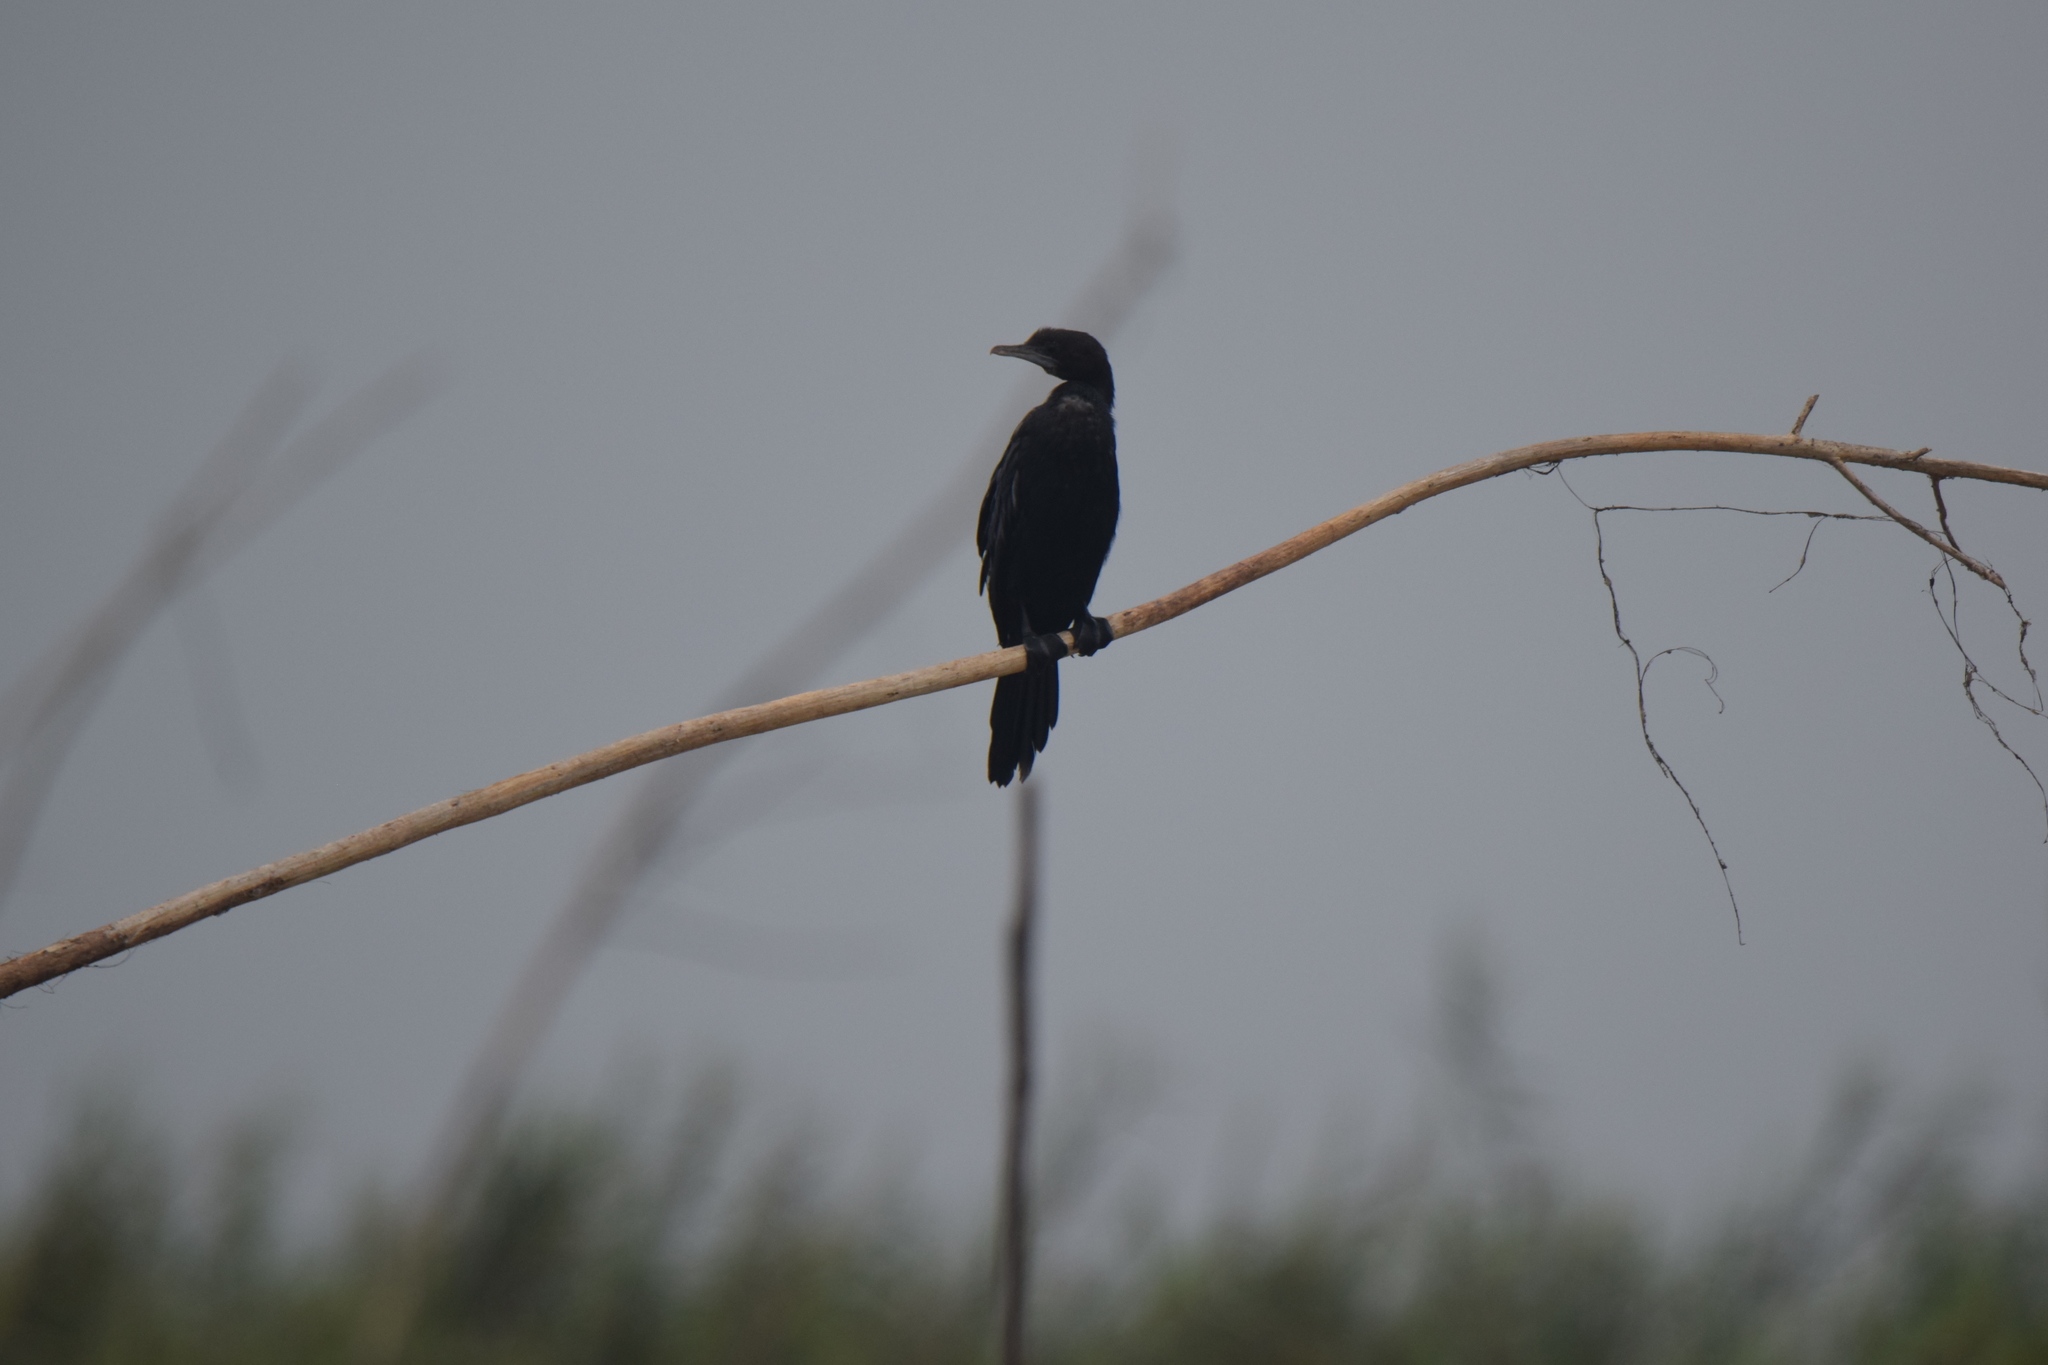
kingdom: Animalia
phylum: Chordata
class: Aves
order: Suliformes
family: Phalacrocoracidae
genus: Microcarbo
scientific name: Microcarbo niger
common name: Little cormorant
